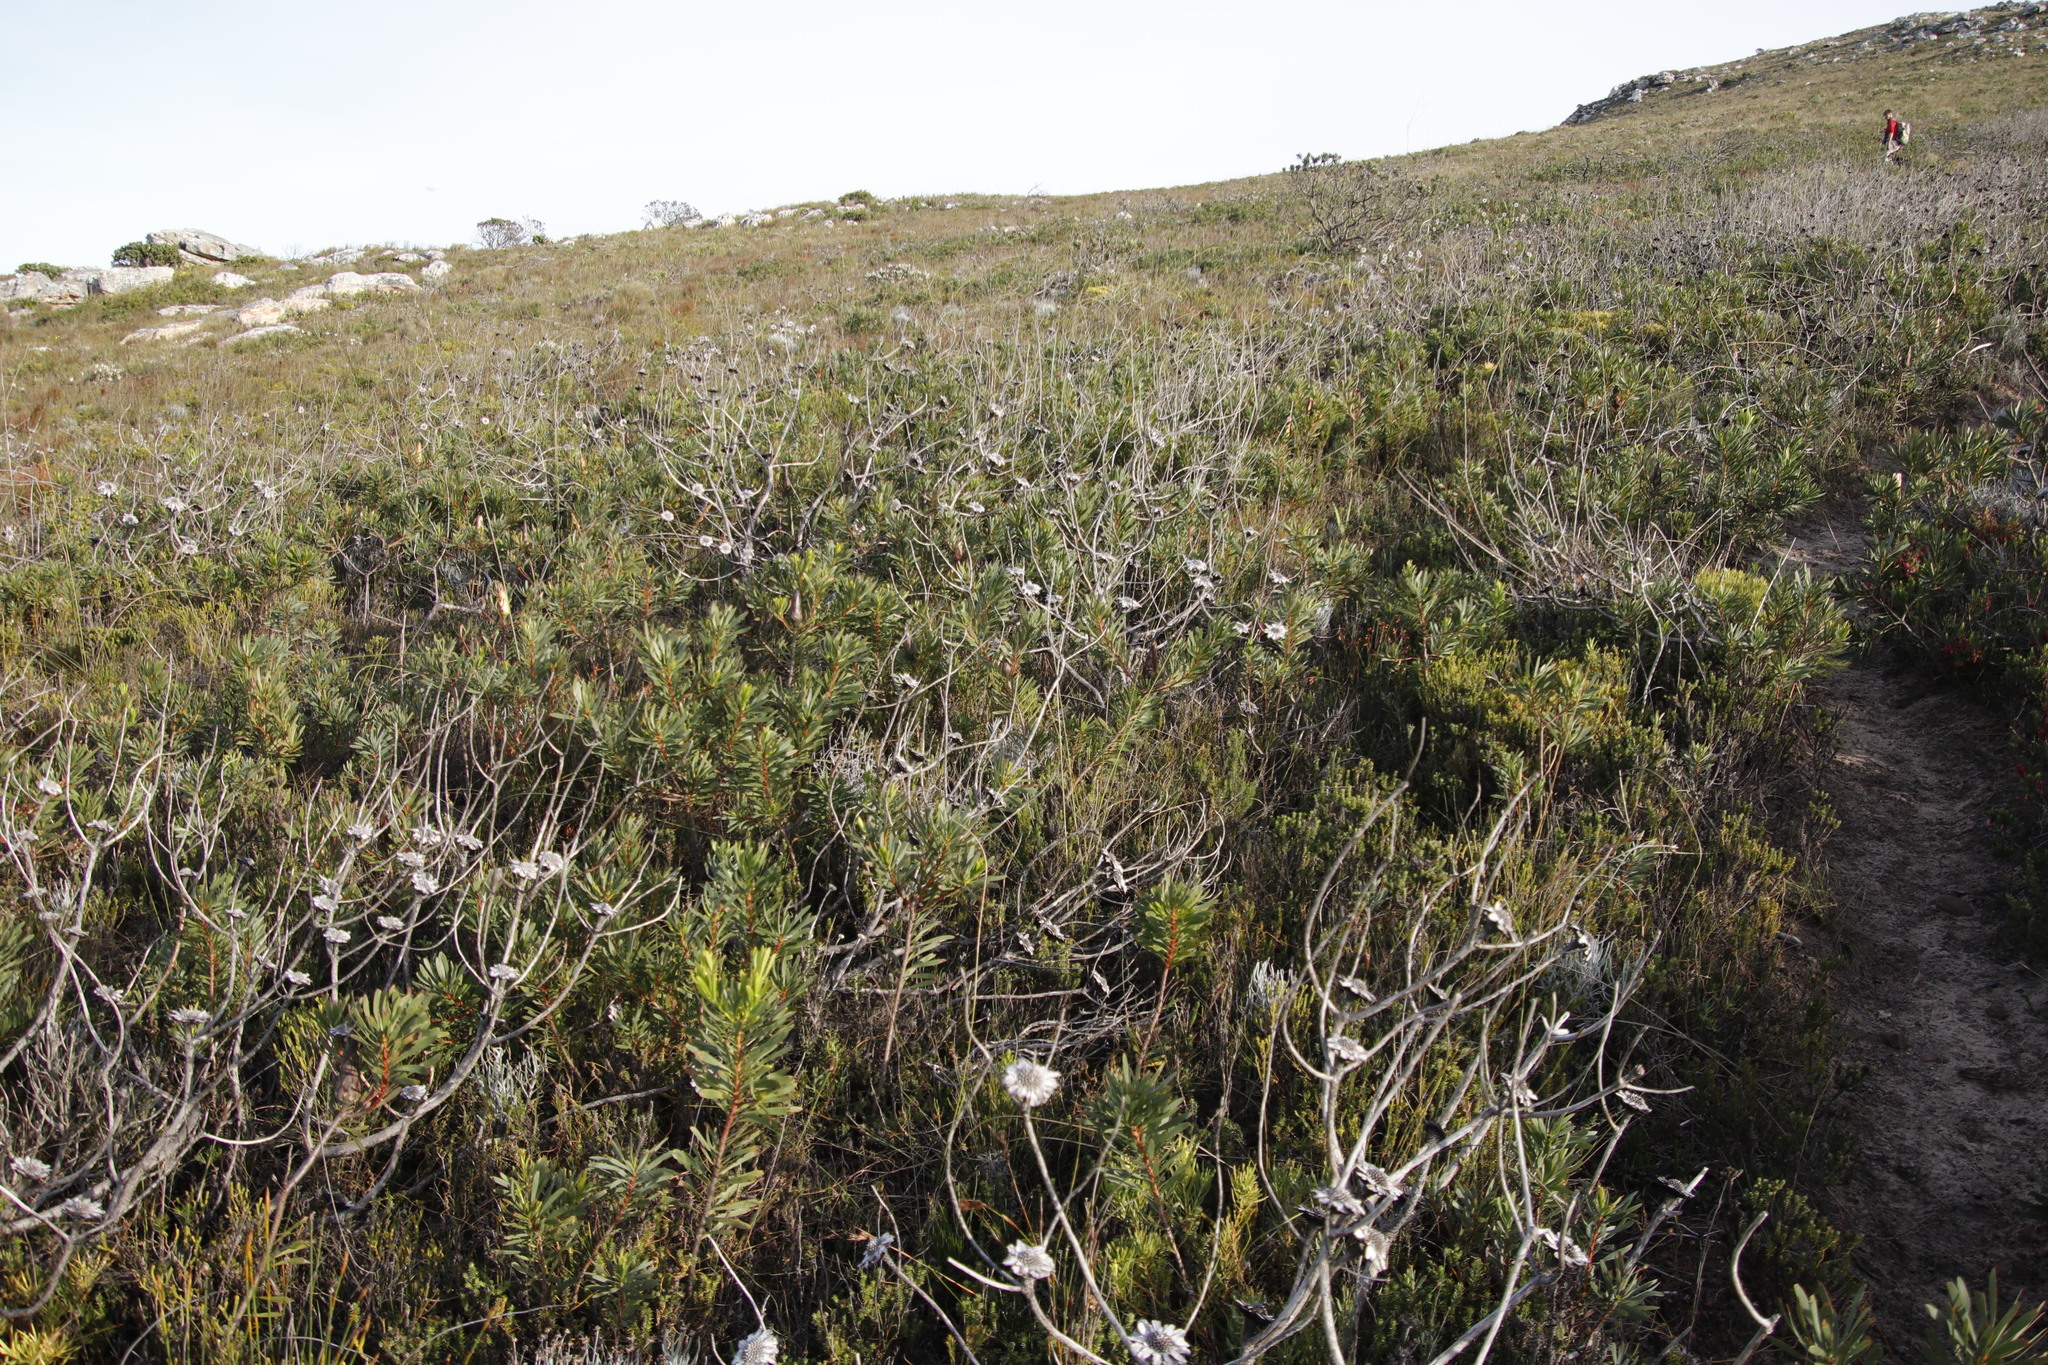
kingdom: Plantae
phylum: Tracheophyta
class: Magnoliopsida
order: Proteales
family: Proteaceae
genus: Protea
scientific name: Protea repens
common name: Sugarbush
